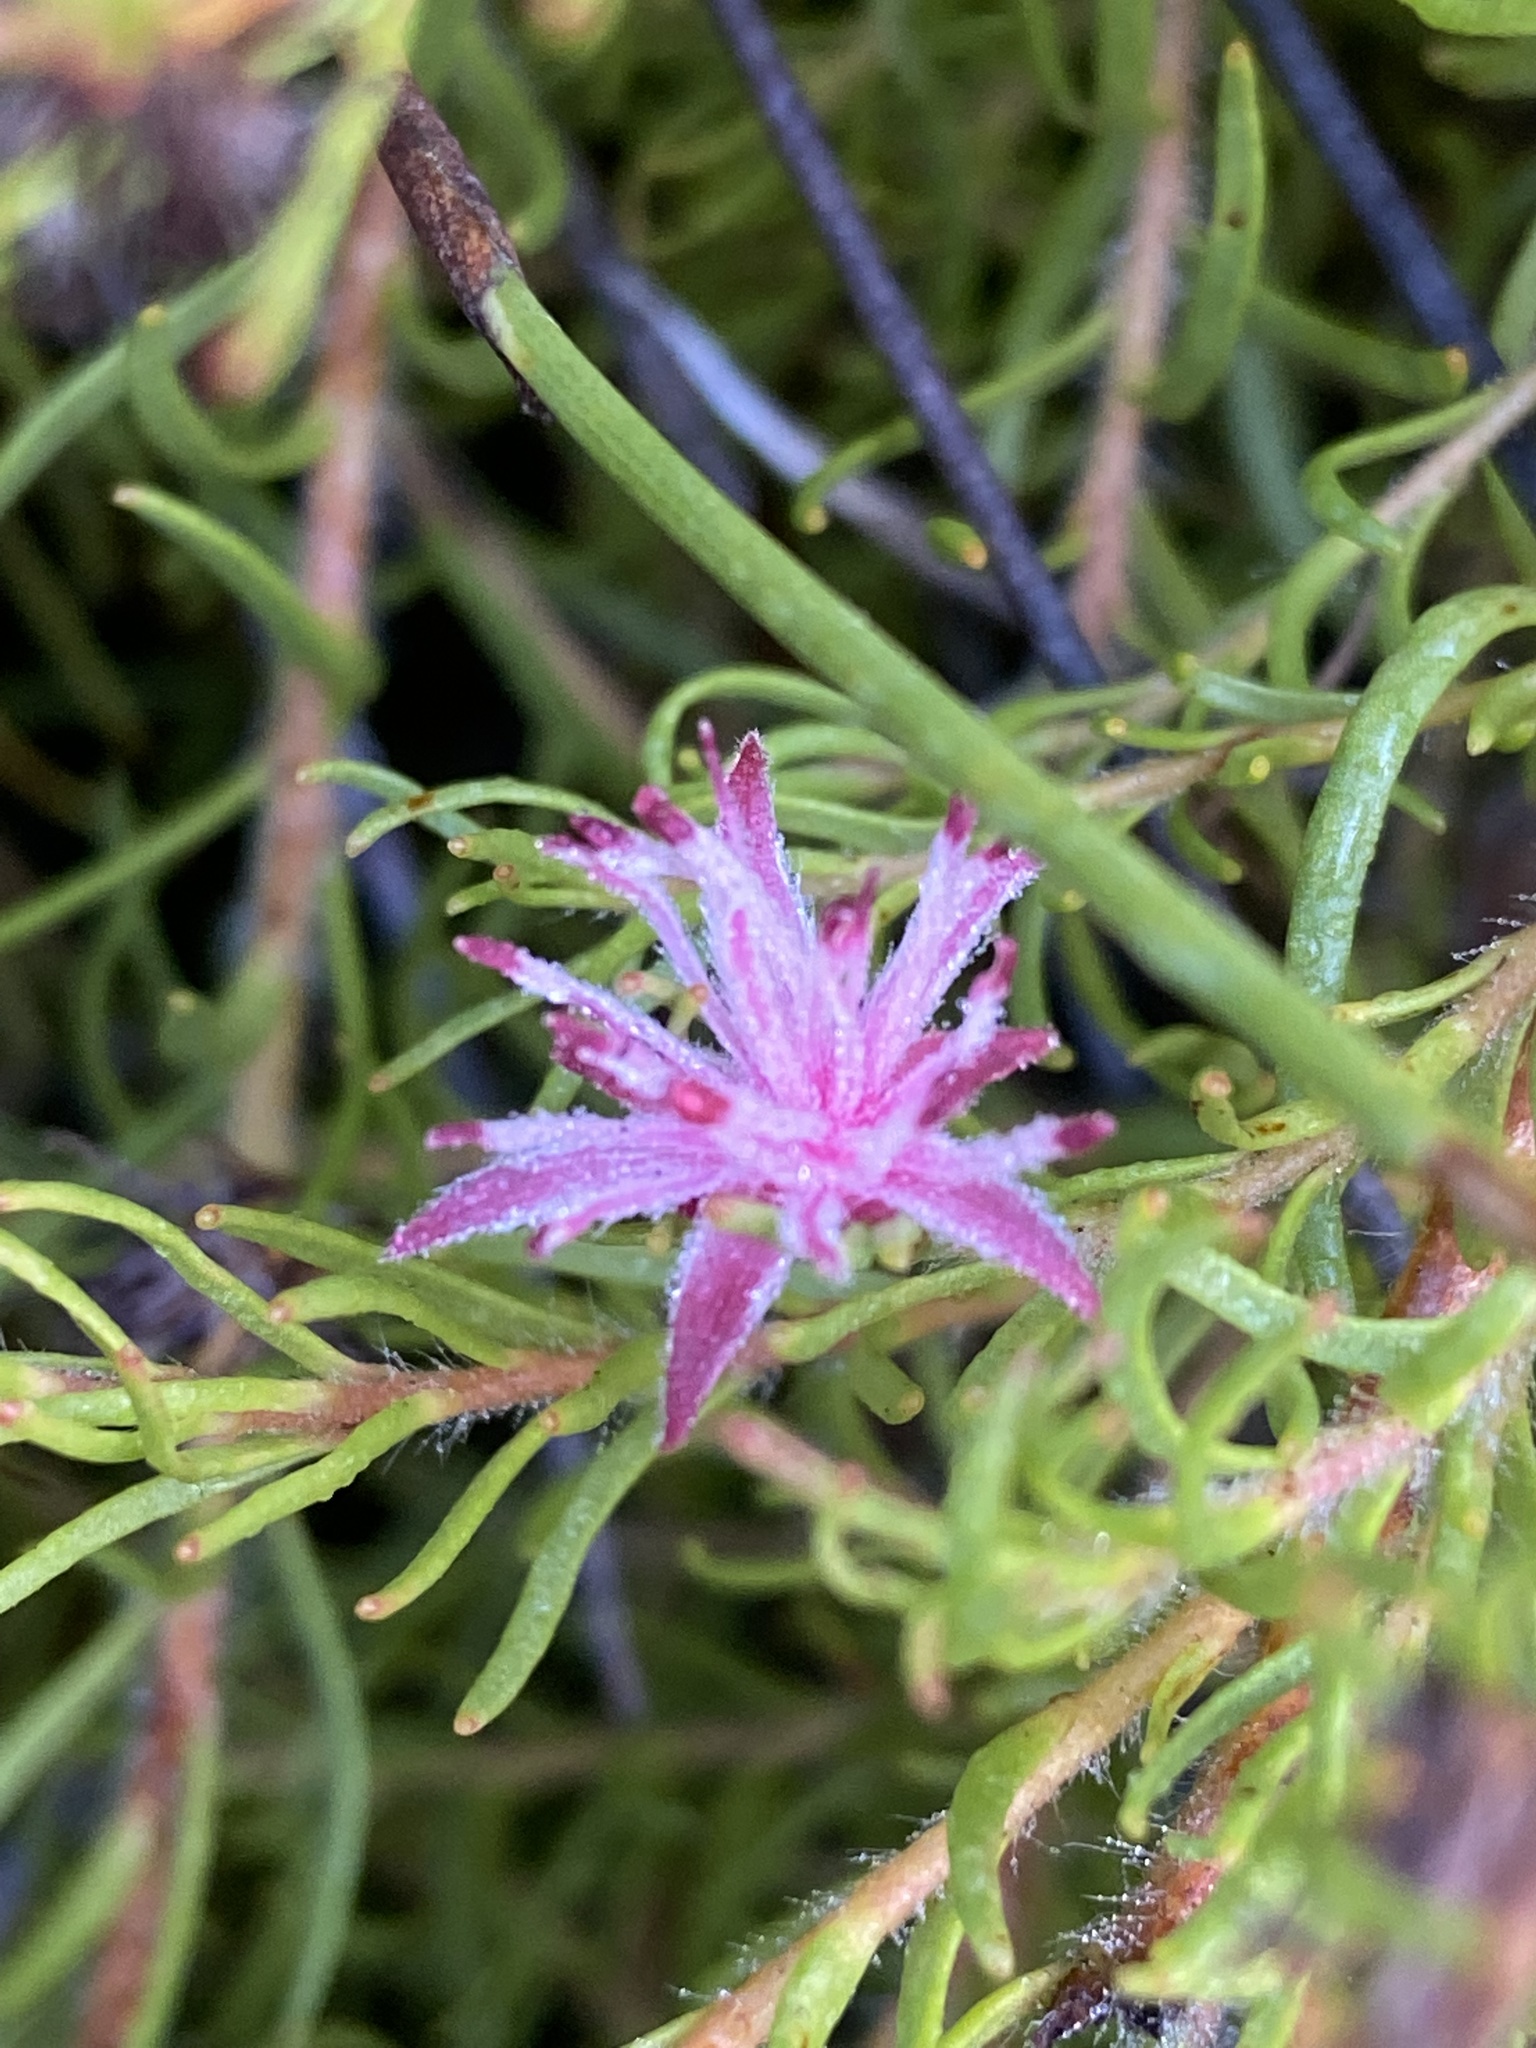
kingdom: Plantae
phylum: Tracheophyta
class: Magnoliopsida
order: Proteales
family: Proteaceae
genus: Diastella
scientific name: Diastella proteoides
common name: Flats silkypuff
